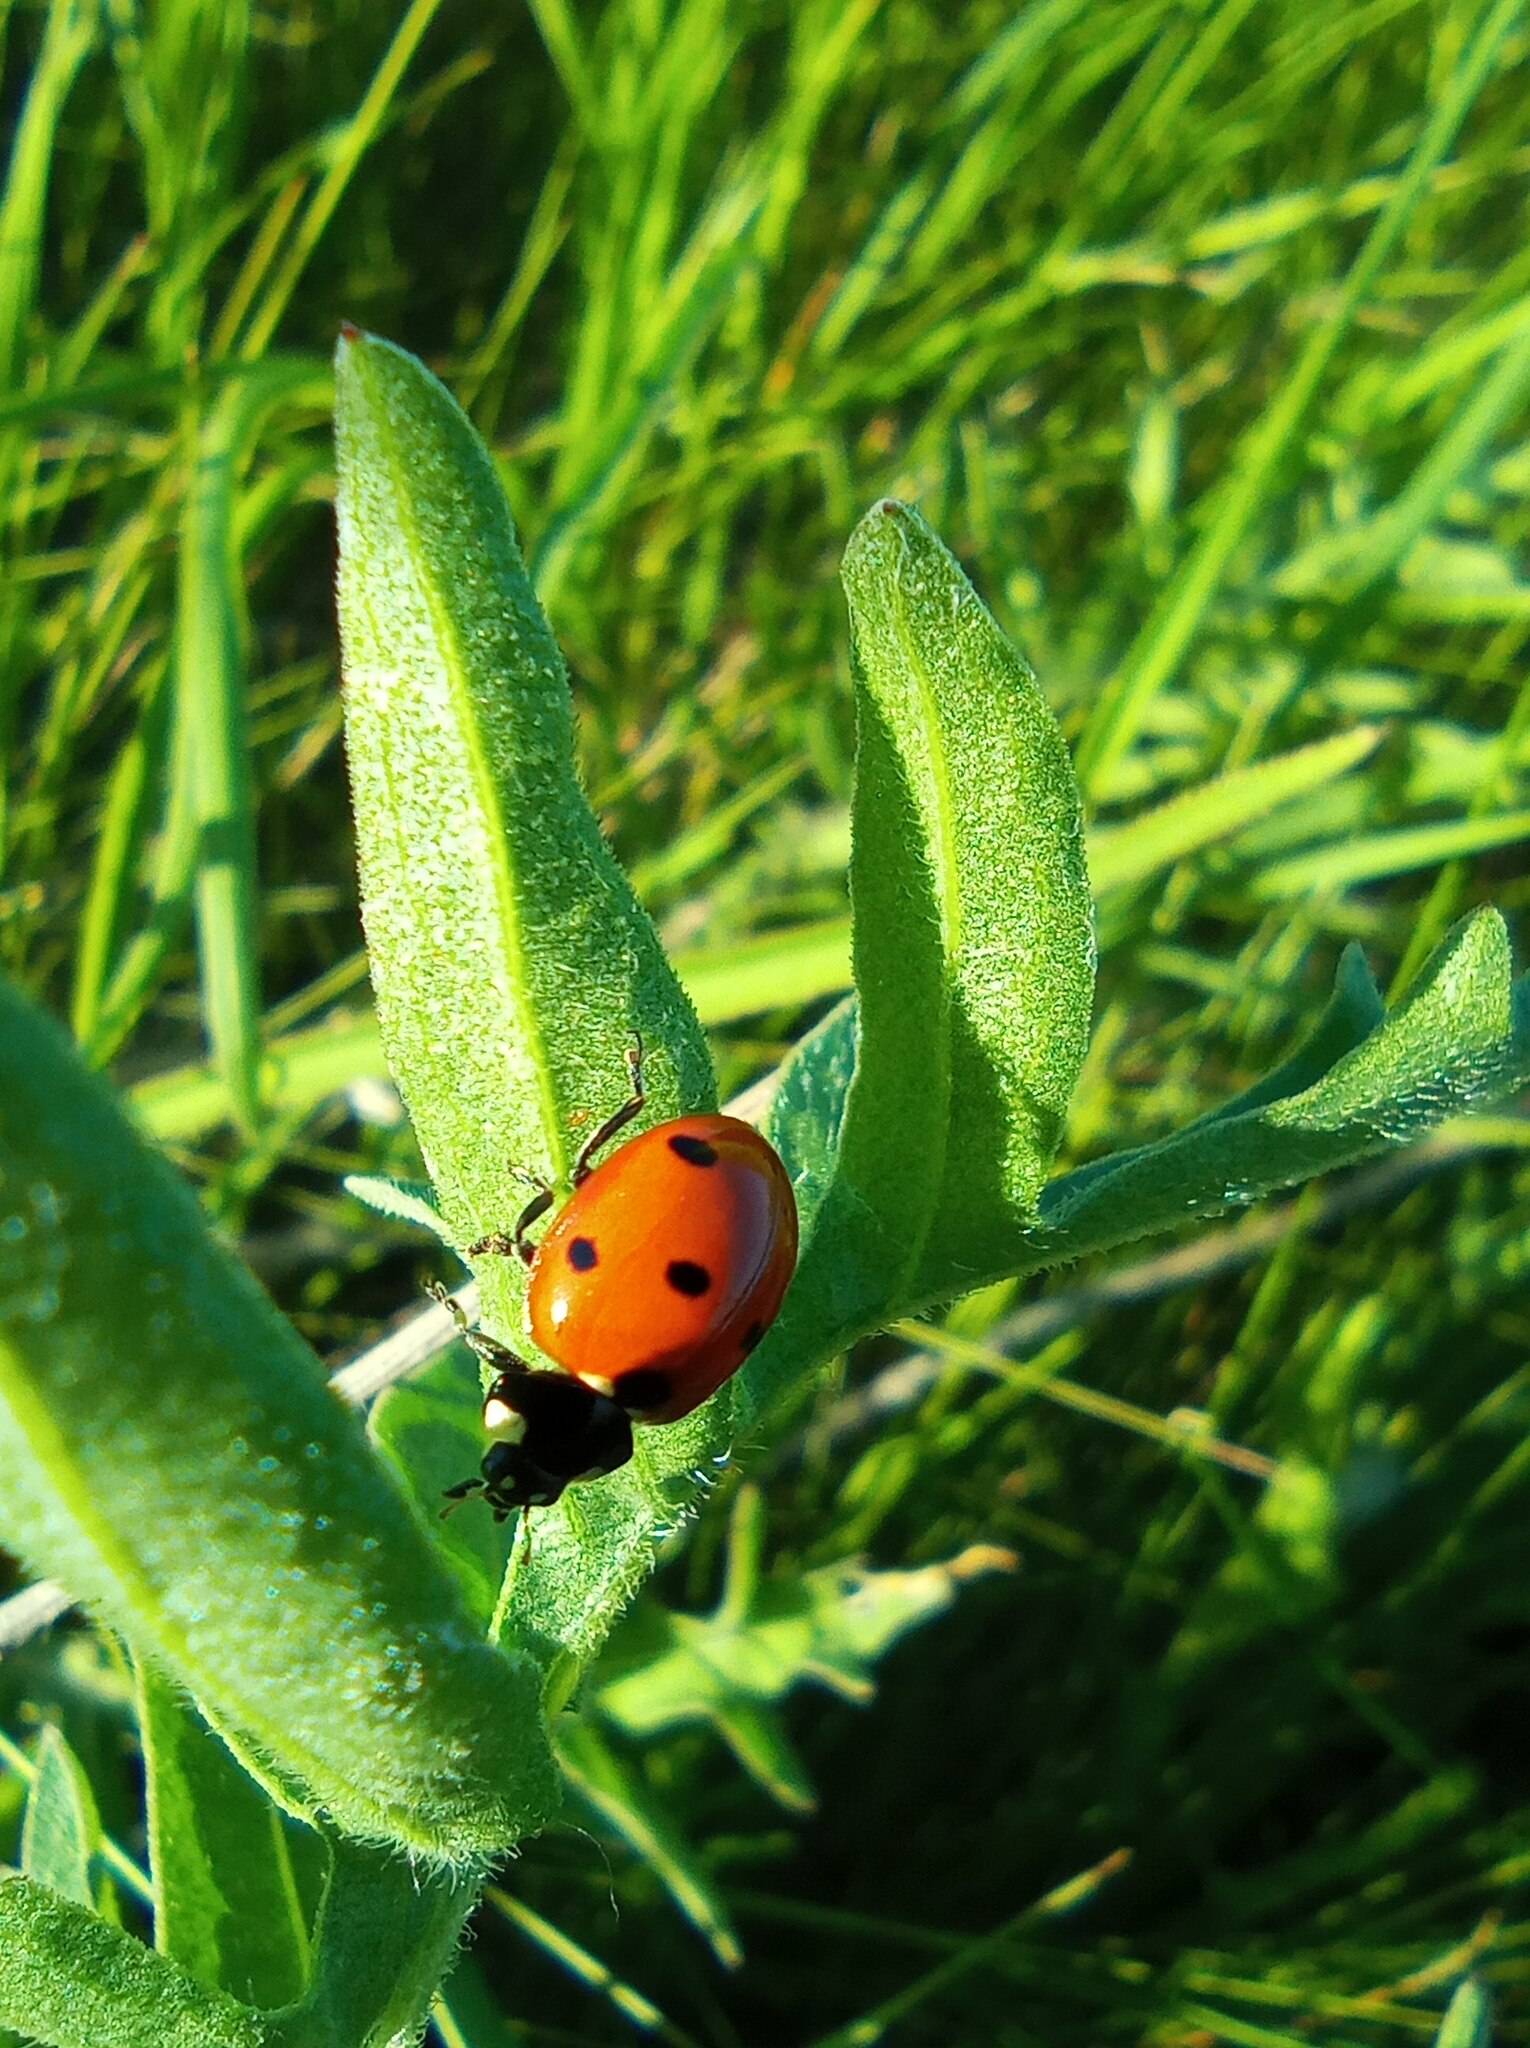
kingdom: Animalia
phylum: Arthropoda
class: Insecta
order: Coleoptera
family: Coccinellidae
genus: Coccinella
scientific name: Coccinella septempunctata
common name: Sevenspotted lady beetle
